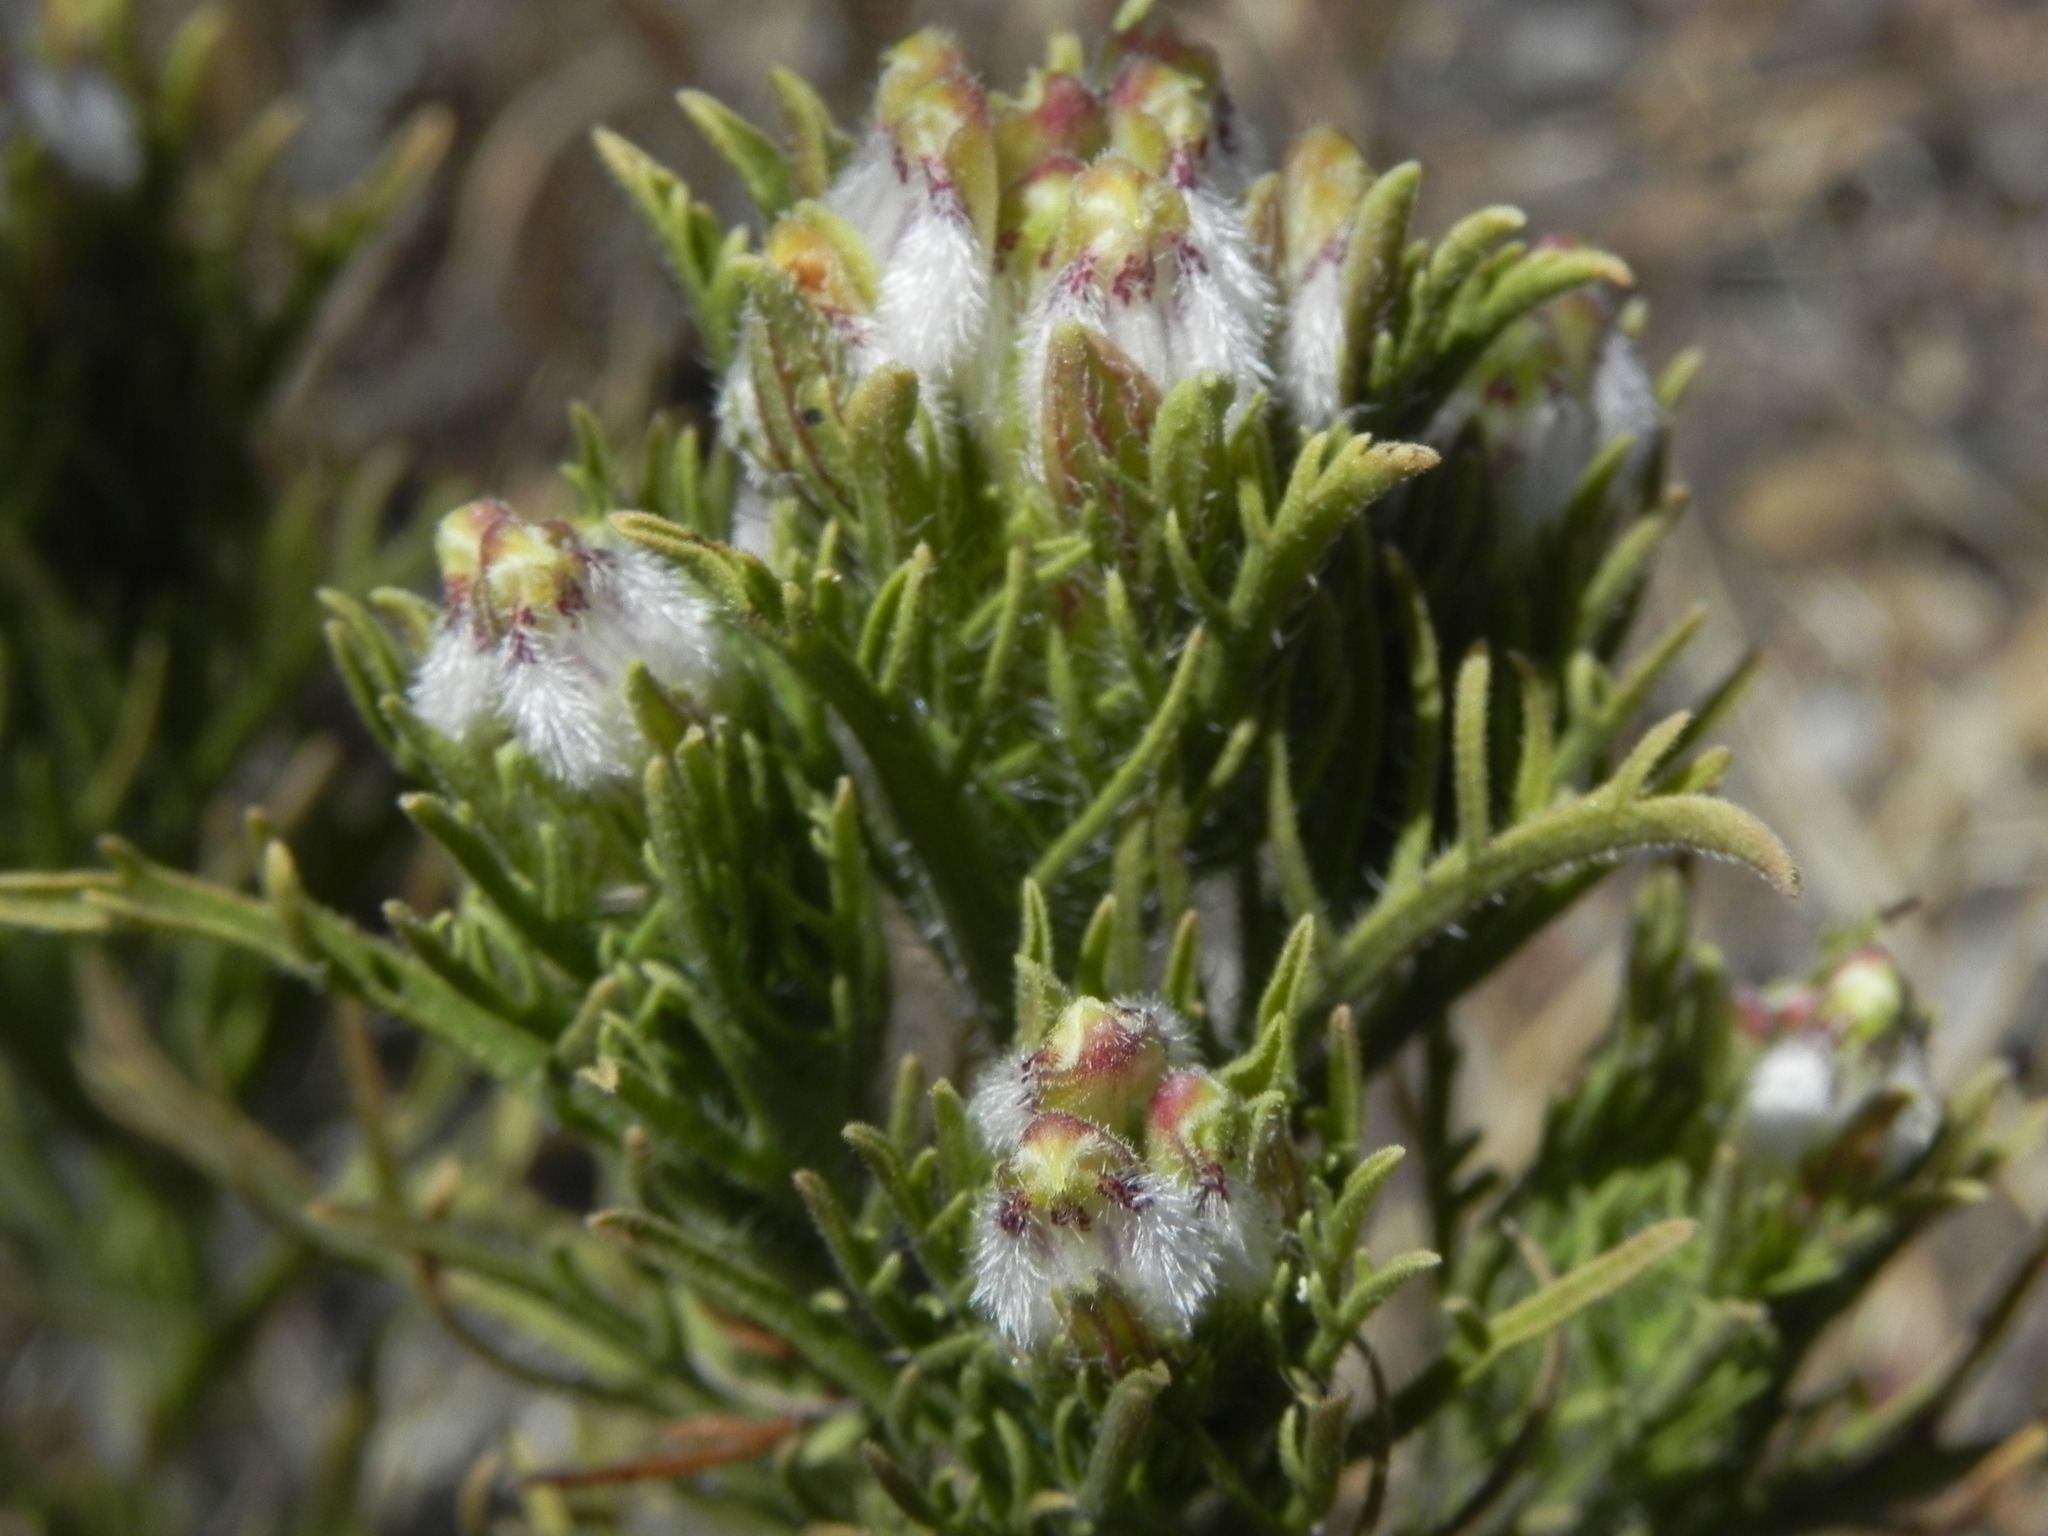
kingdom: Plantae
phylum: Tracheophyta
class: Magnoliopsida
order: Lamiales
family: Orobanchaceae
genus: Dicranostegia
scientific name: Dicranostegia orcuttiana
